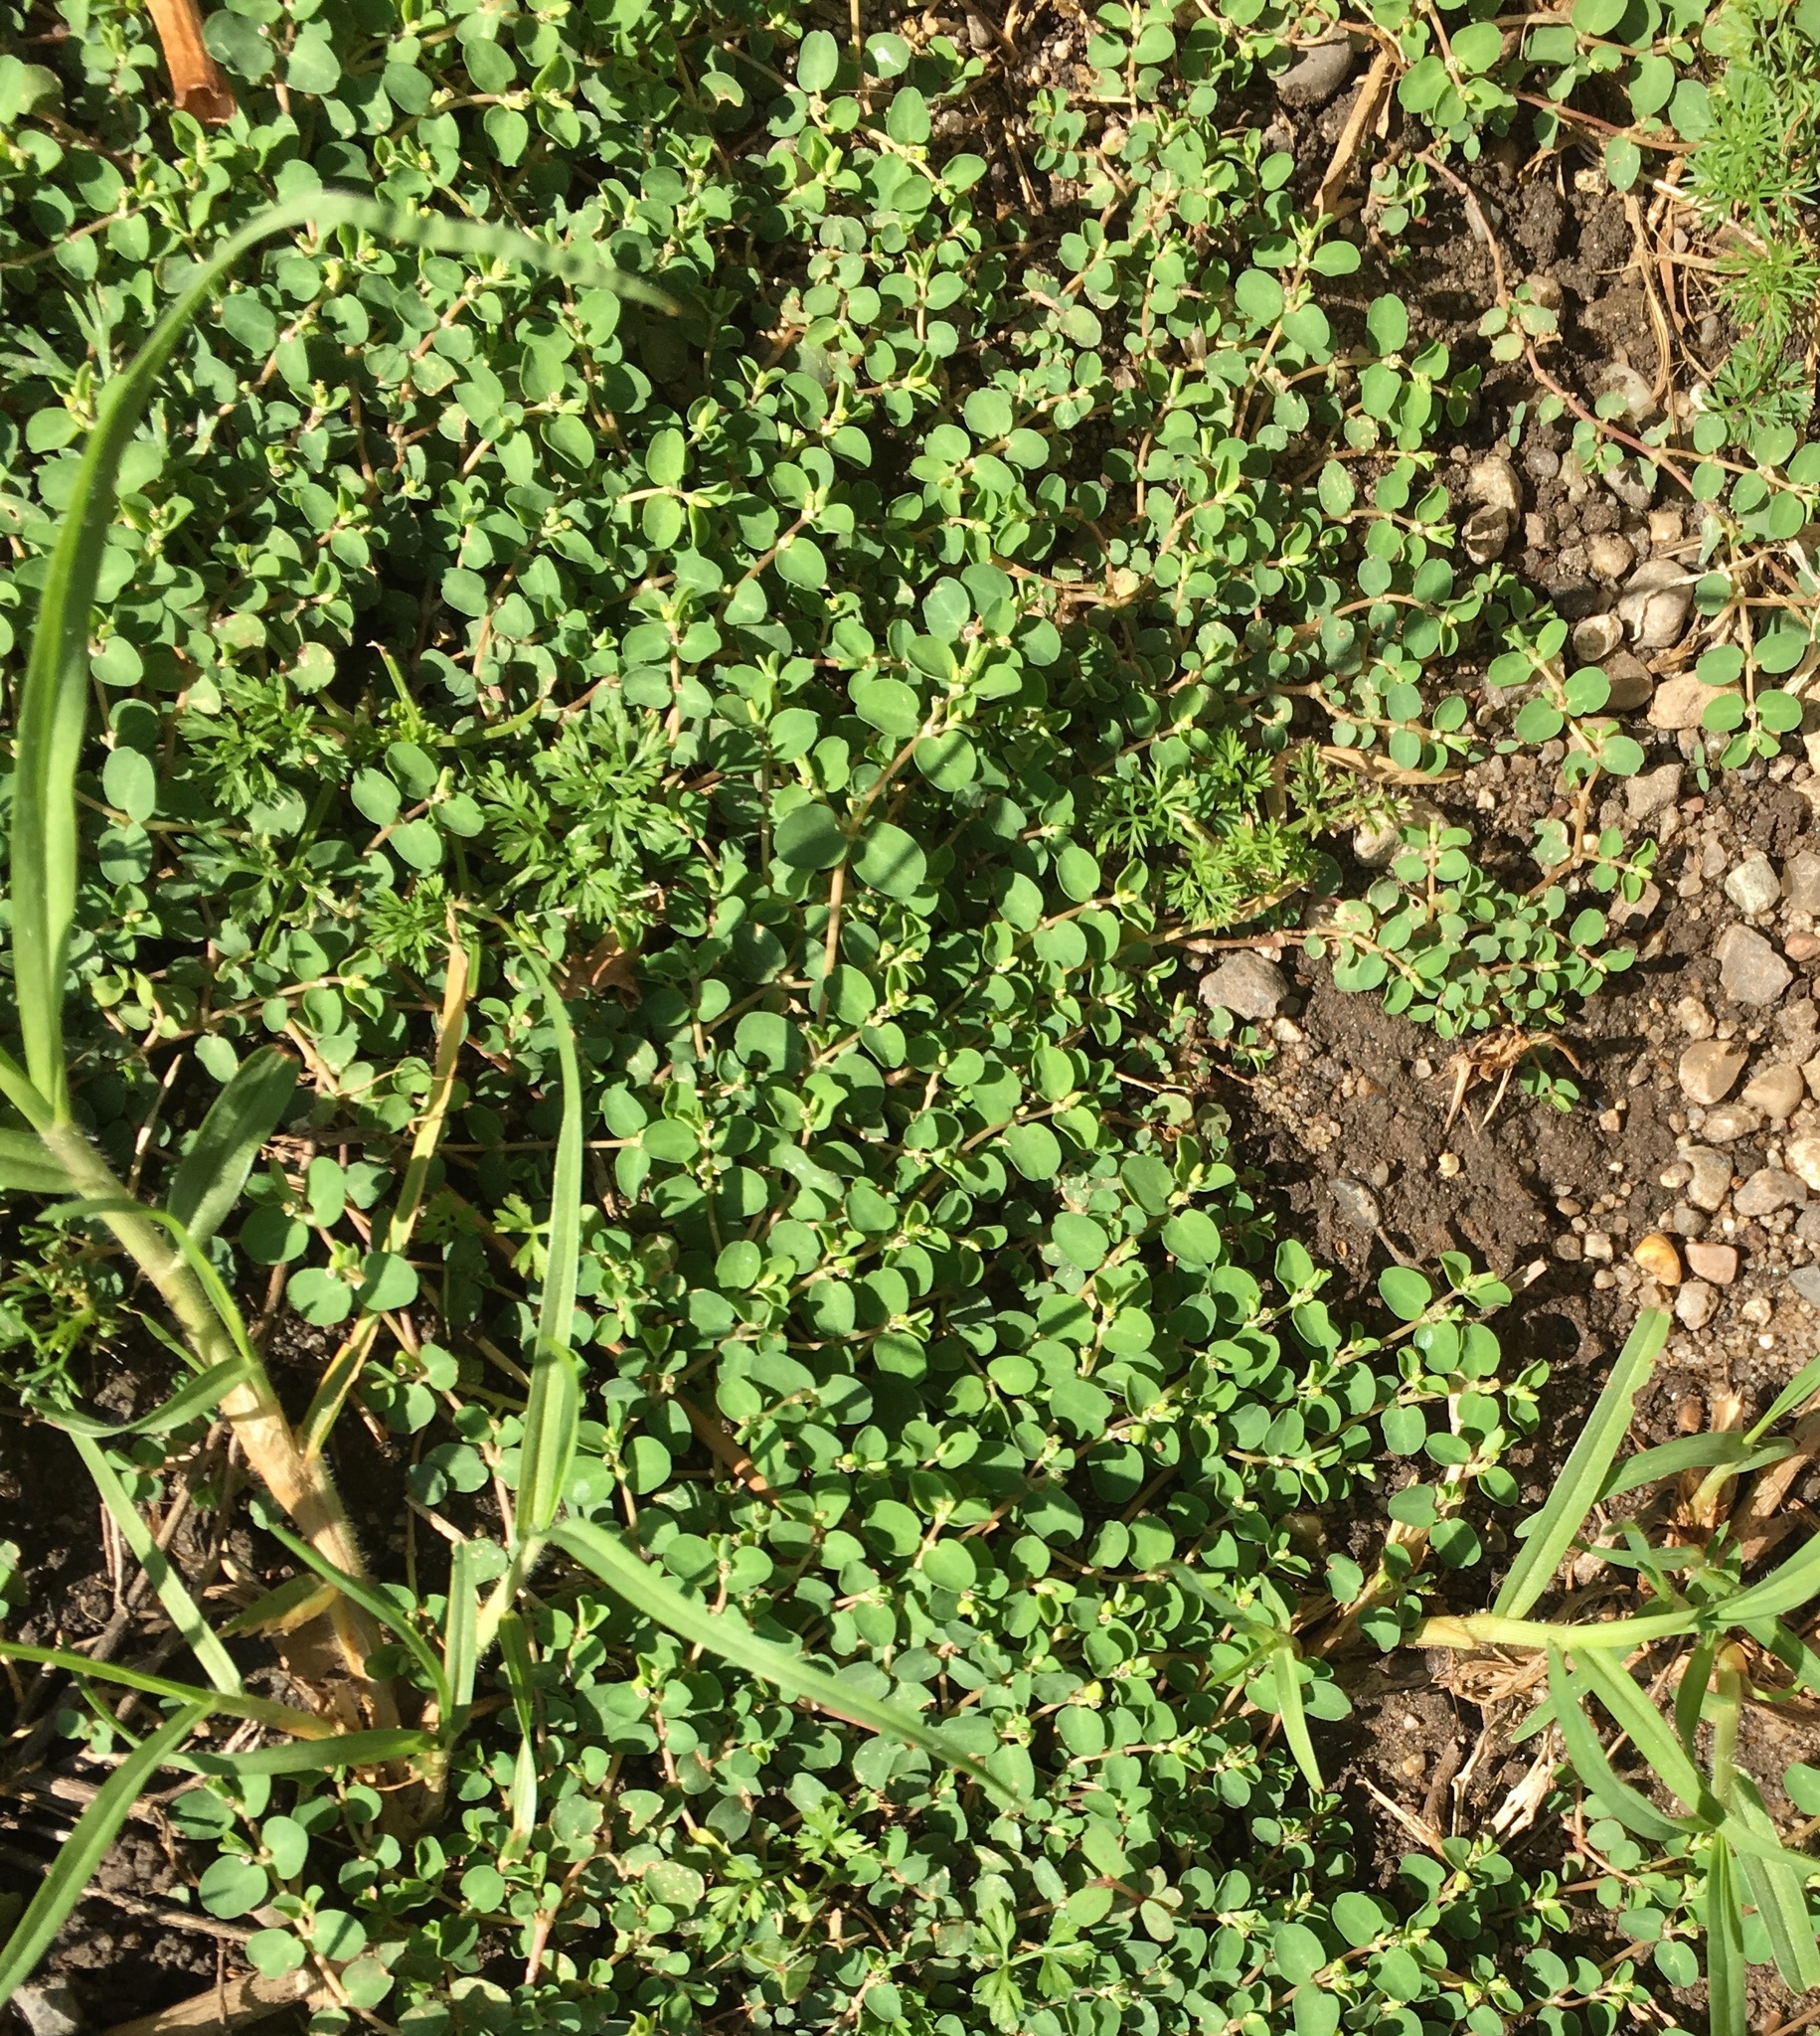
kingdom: Plantae
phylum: Tracheophyta
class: Magnoliopsida
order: Malpighiales
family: Euphorbiaceae
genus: Euphorbia
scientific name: Euphorbia serpens
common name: Matted sandmat
